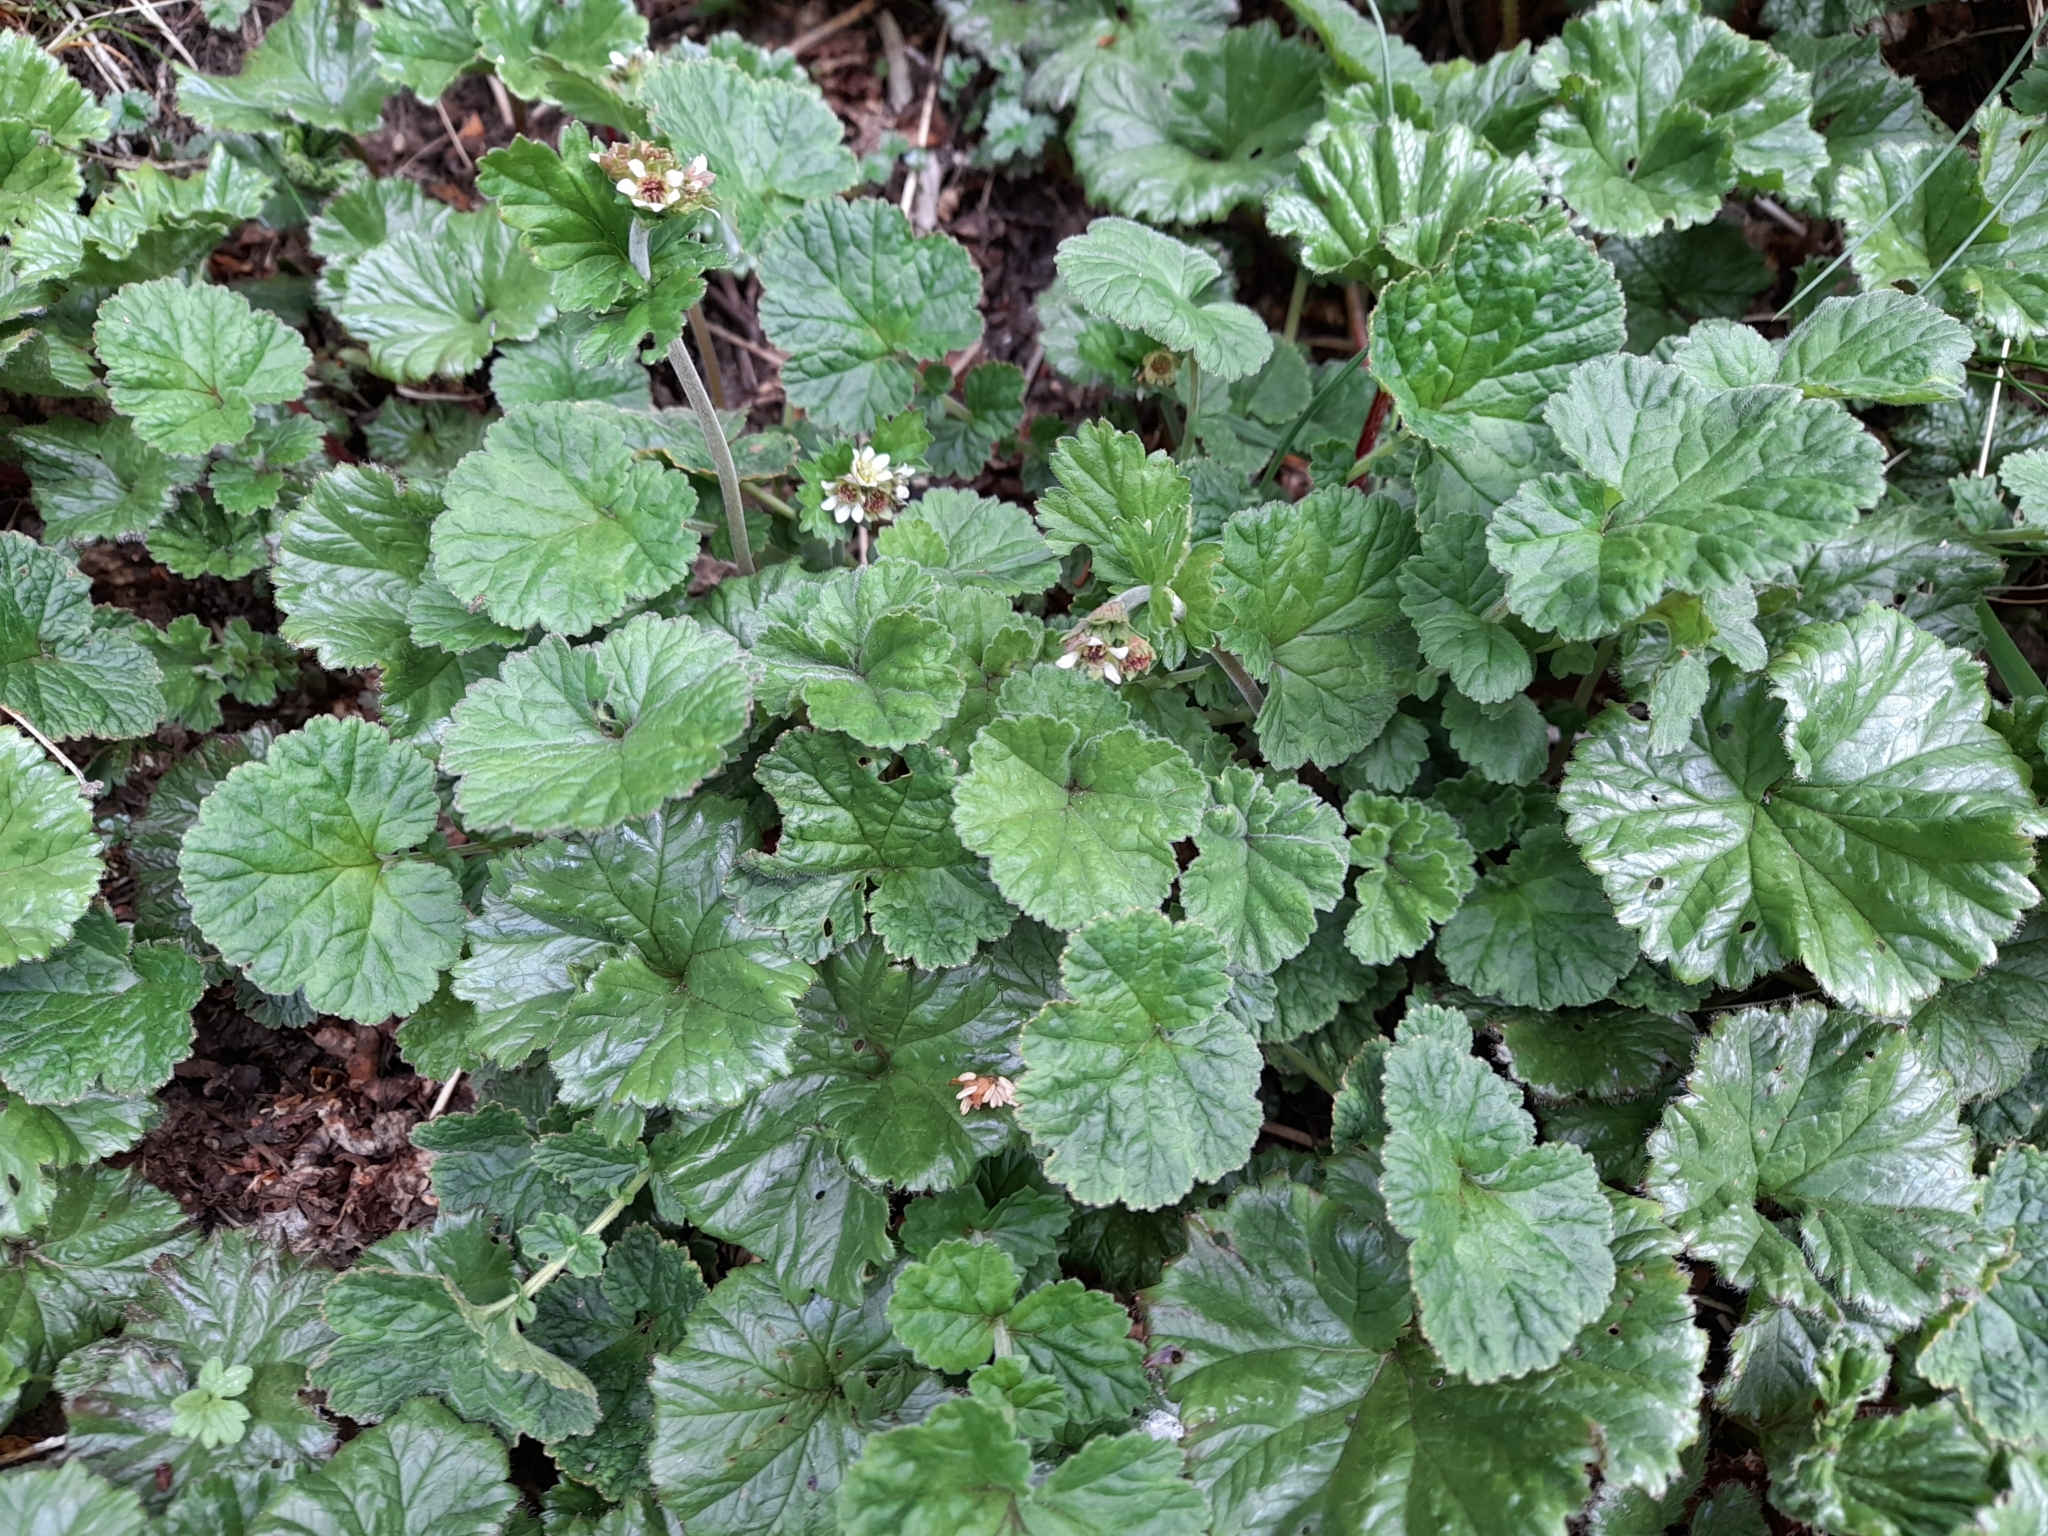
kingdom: Plantae
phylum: Tracheophyta
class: Magnoliopsida
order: Rosales
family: Rosaceae
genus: Geum
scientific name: Geum involucratum
